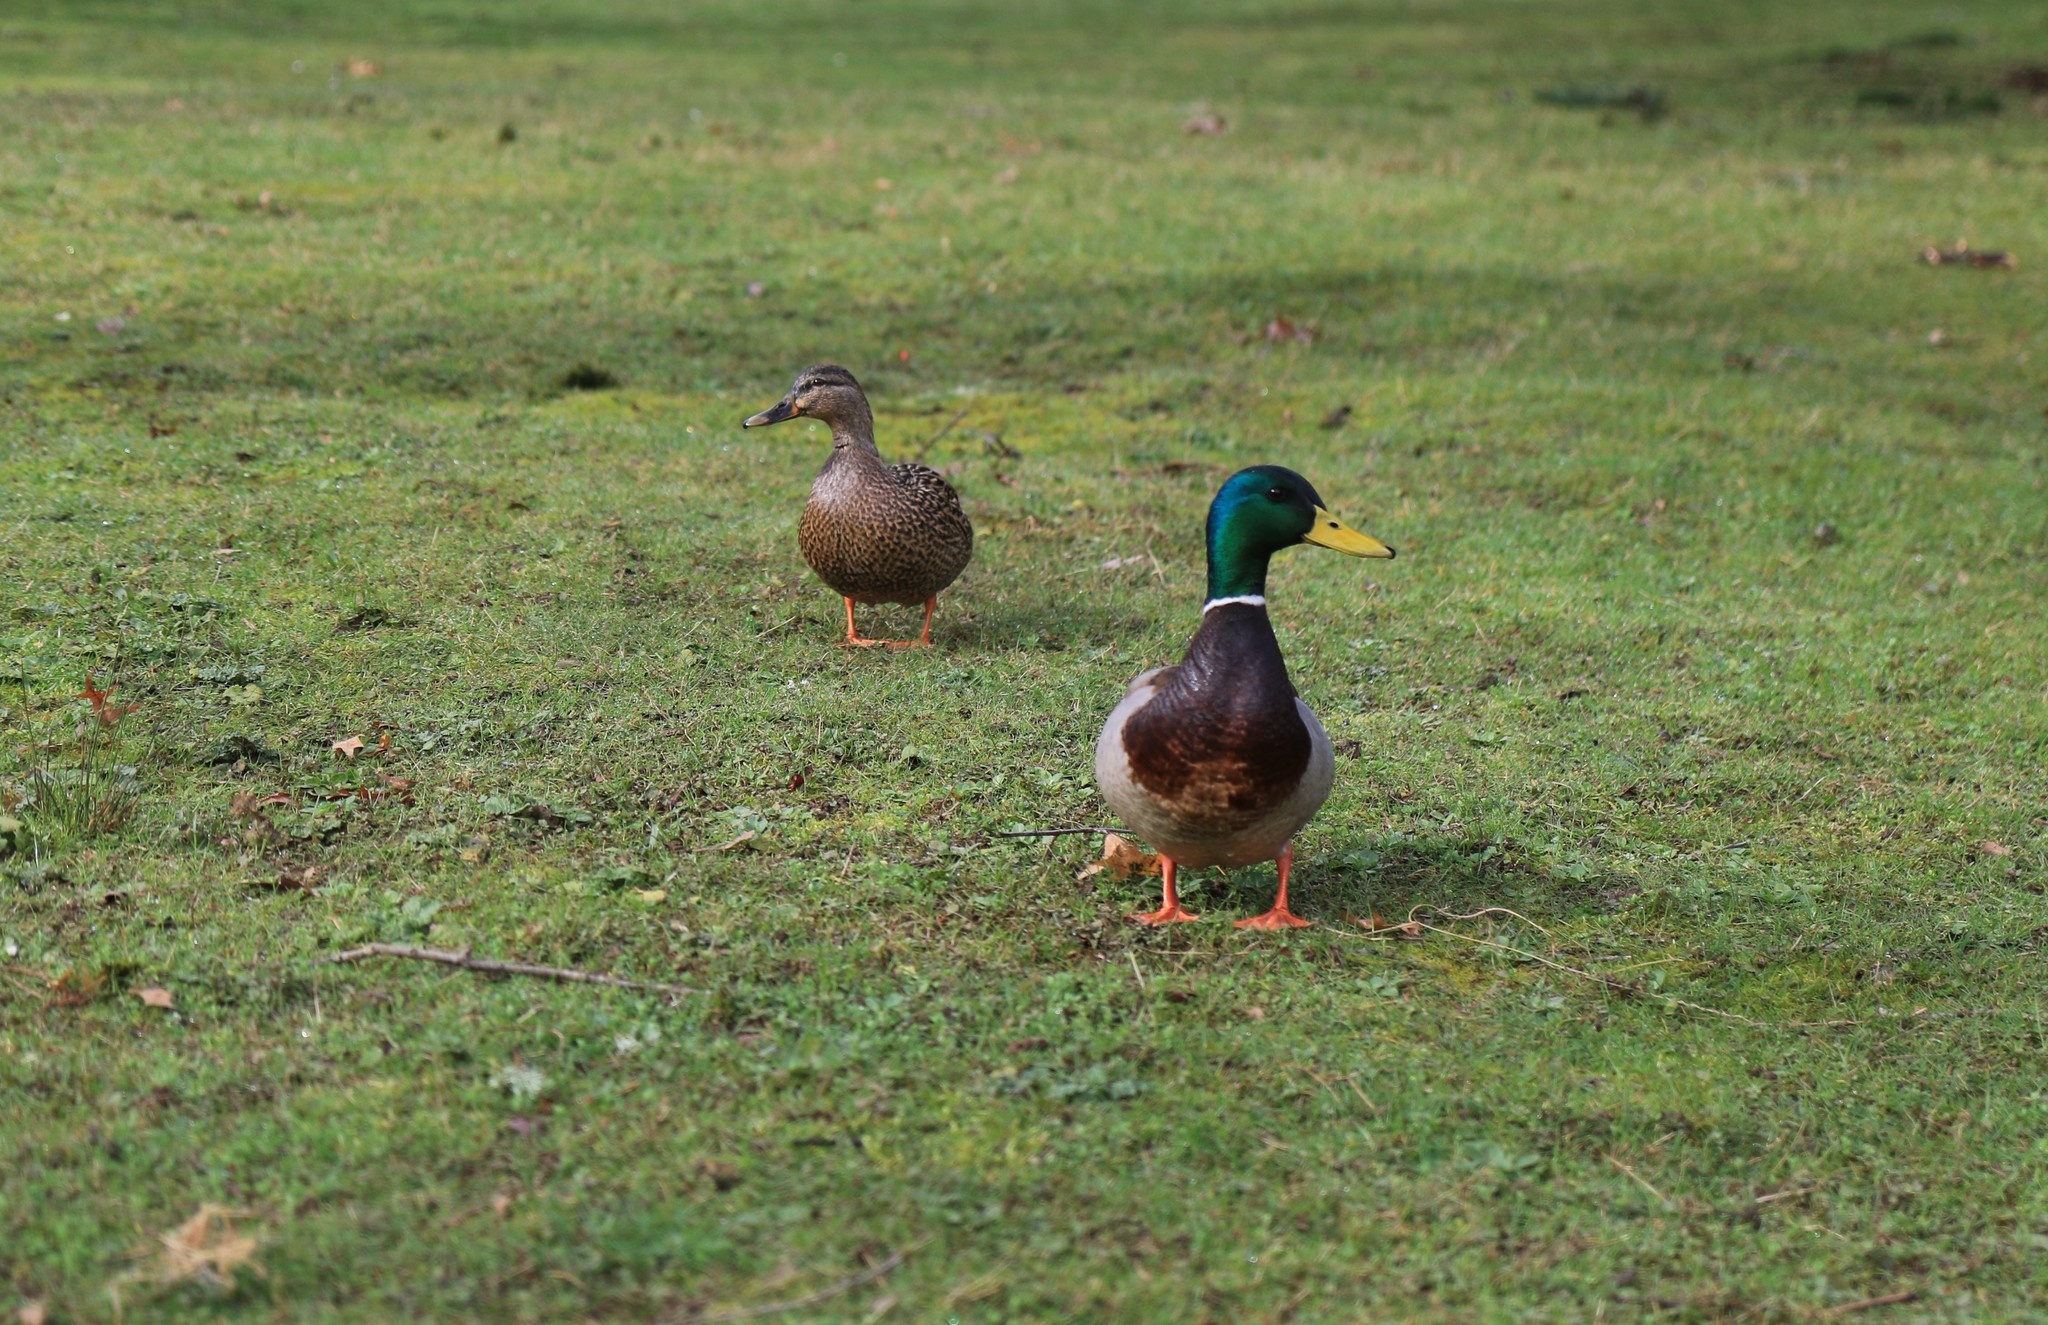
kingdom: Animalia
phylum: Chordata
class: Aves
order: Anseriformes
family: Anatidae
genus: Anas
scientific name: Anas platyrhynchos
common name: Mallard
